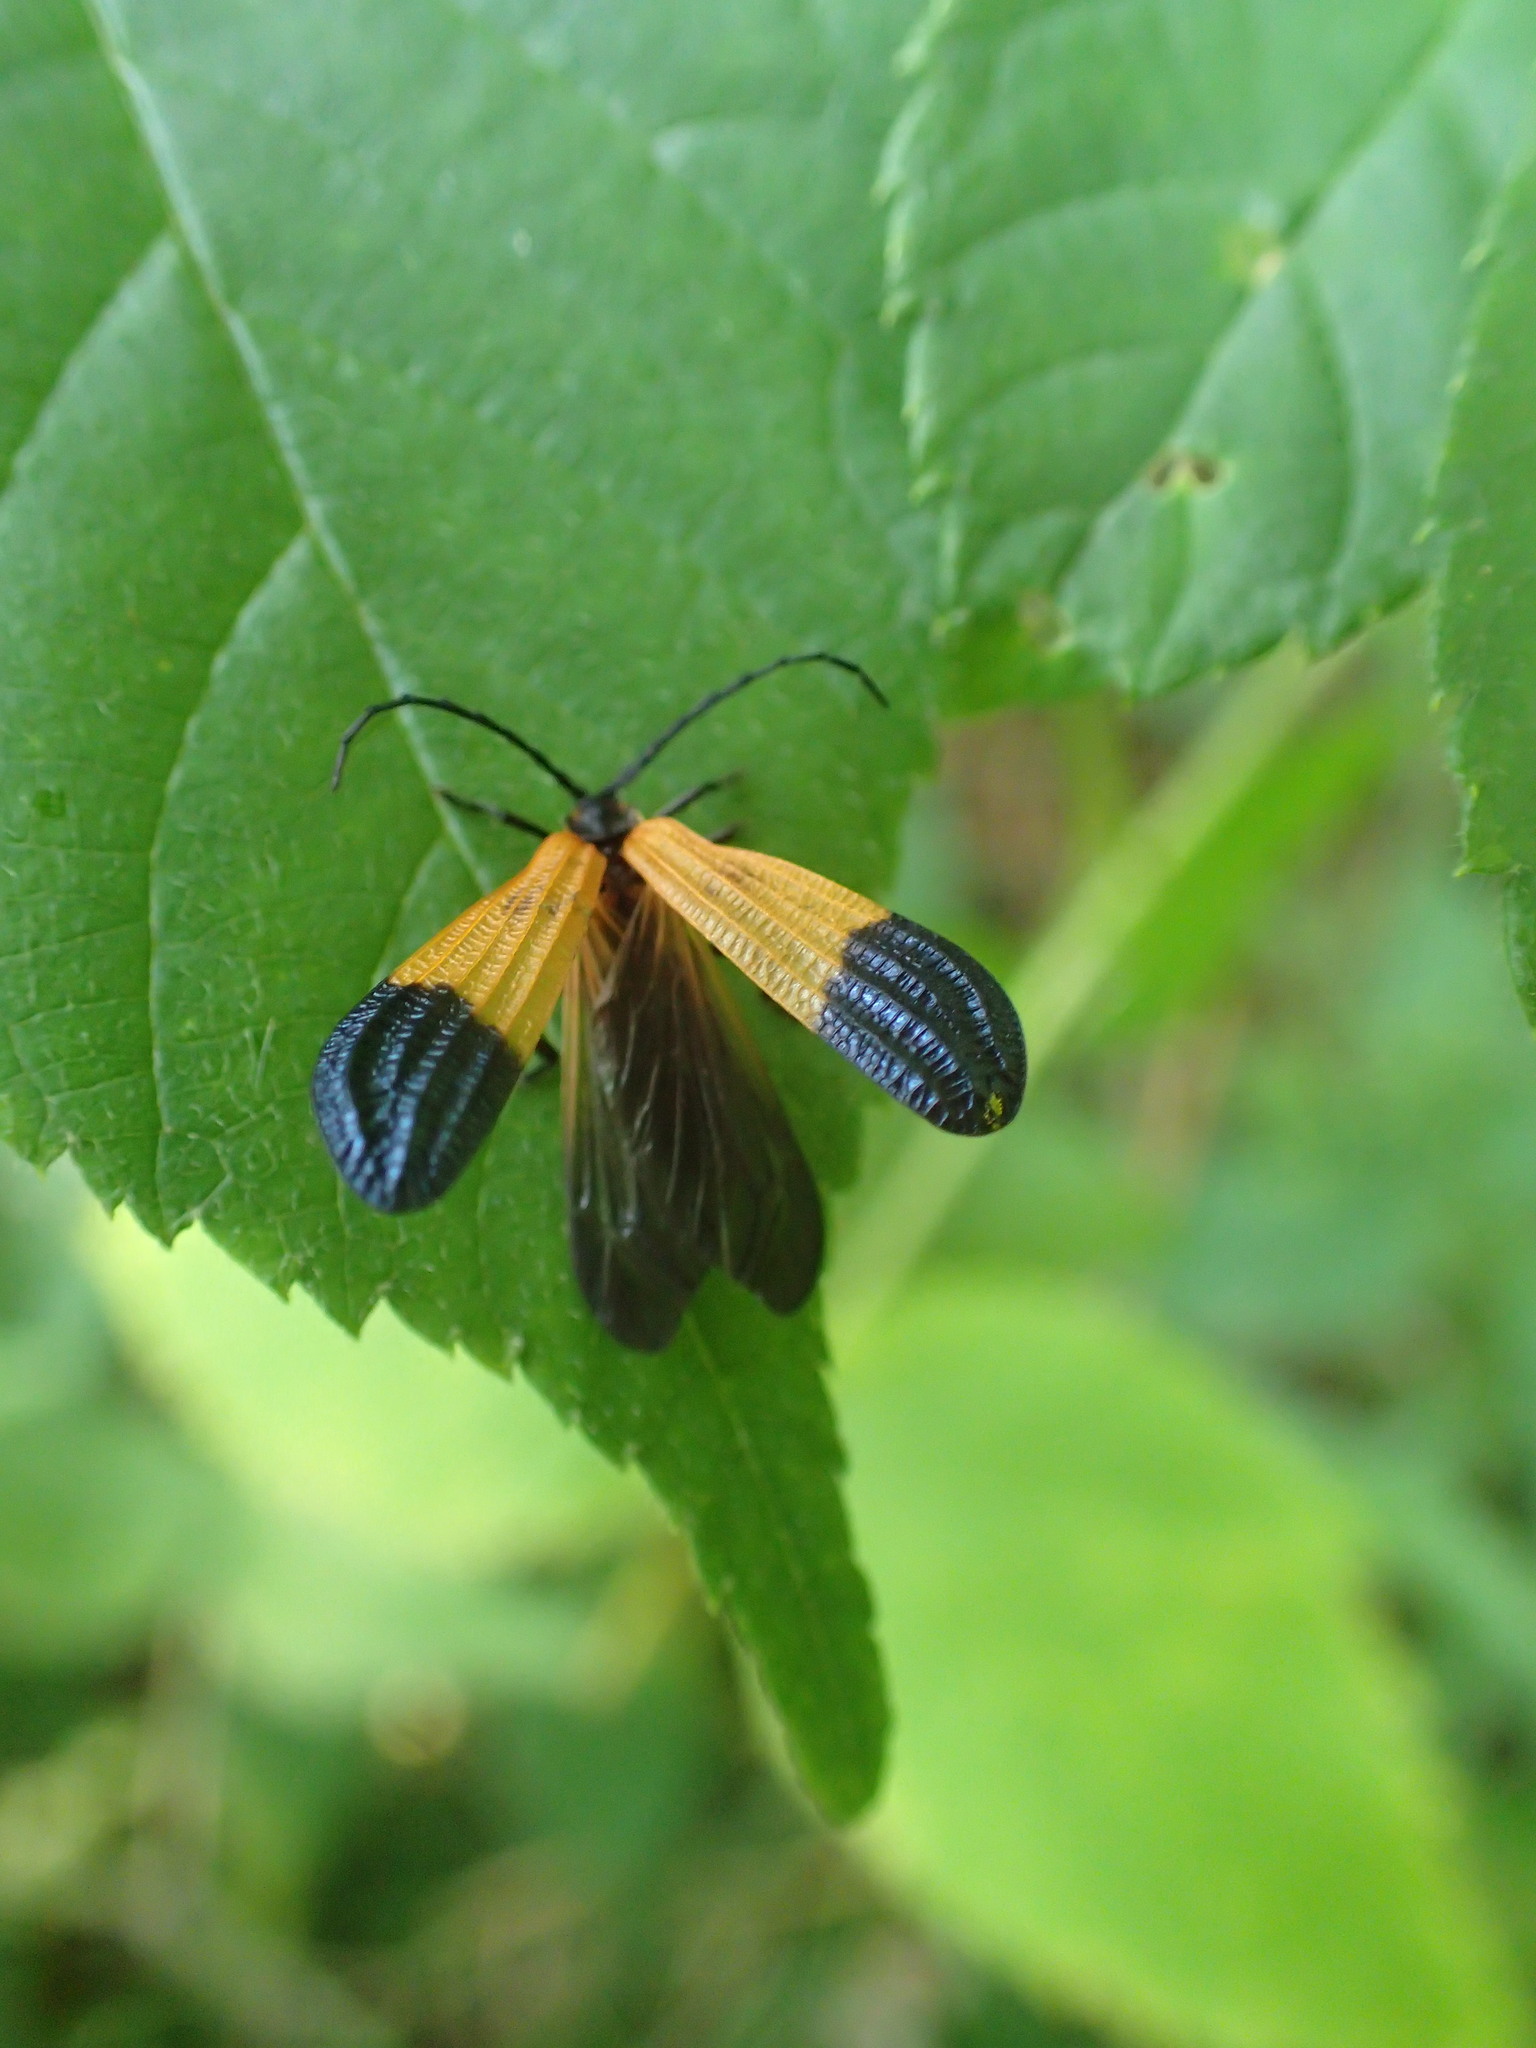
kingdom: Animalia
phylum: Arthropoda
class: Insecta
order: Coleoptera
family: Lycidae
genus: Calopteron
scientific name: Calopteron terminale
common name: End band net-winged beetle
